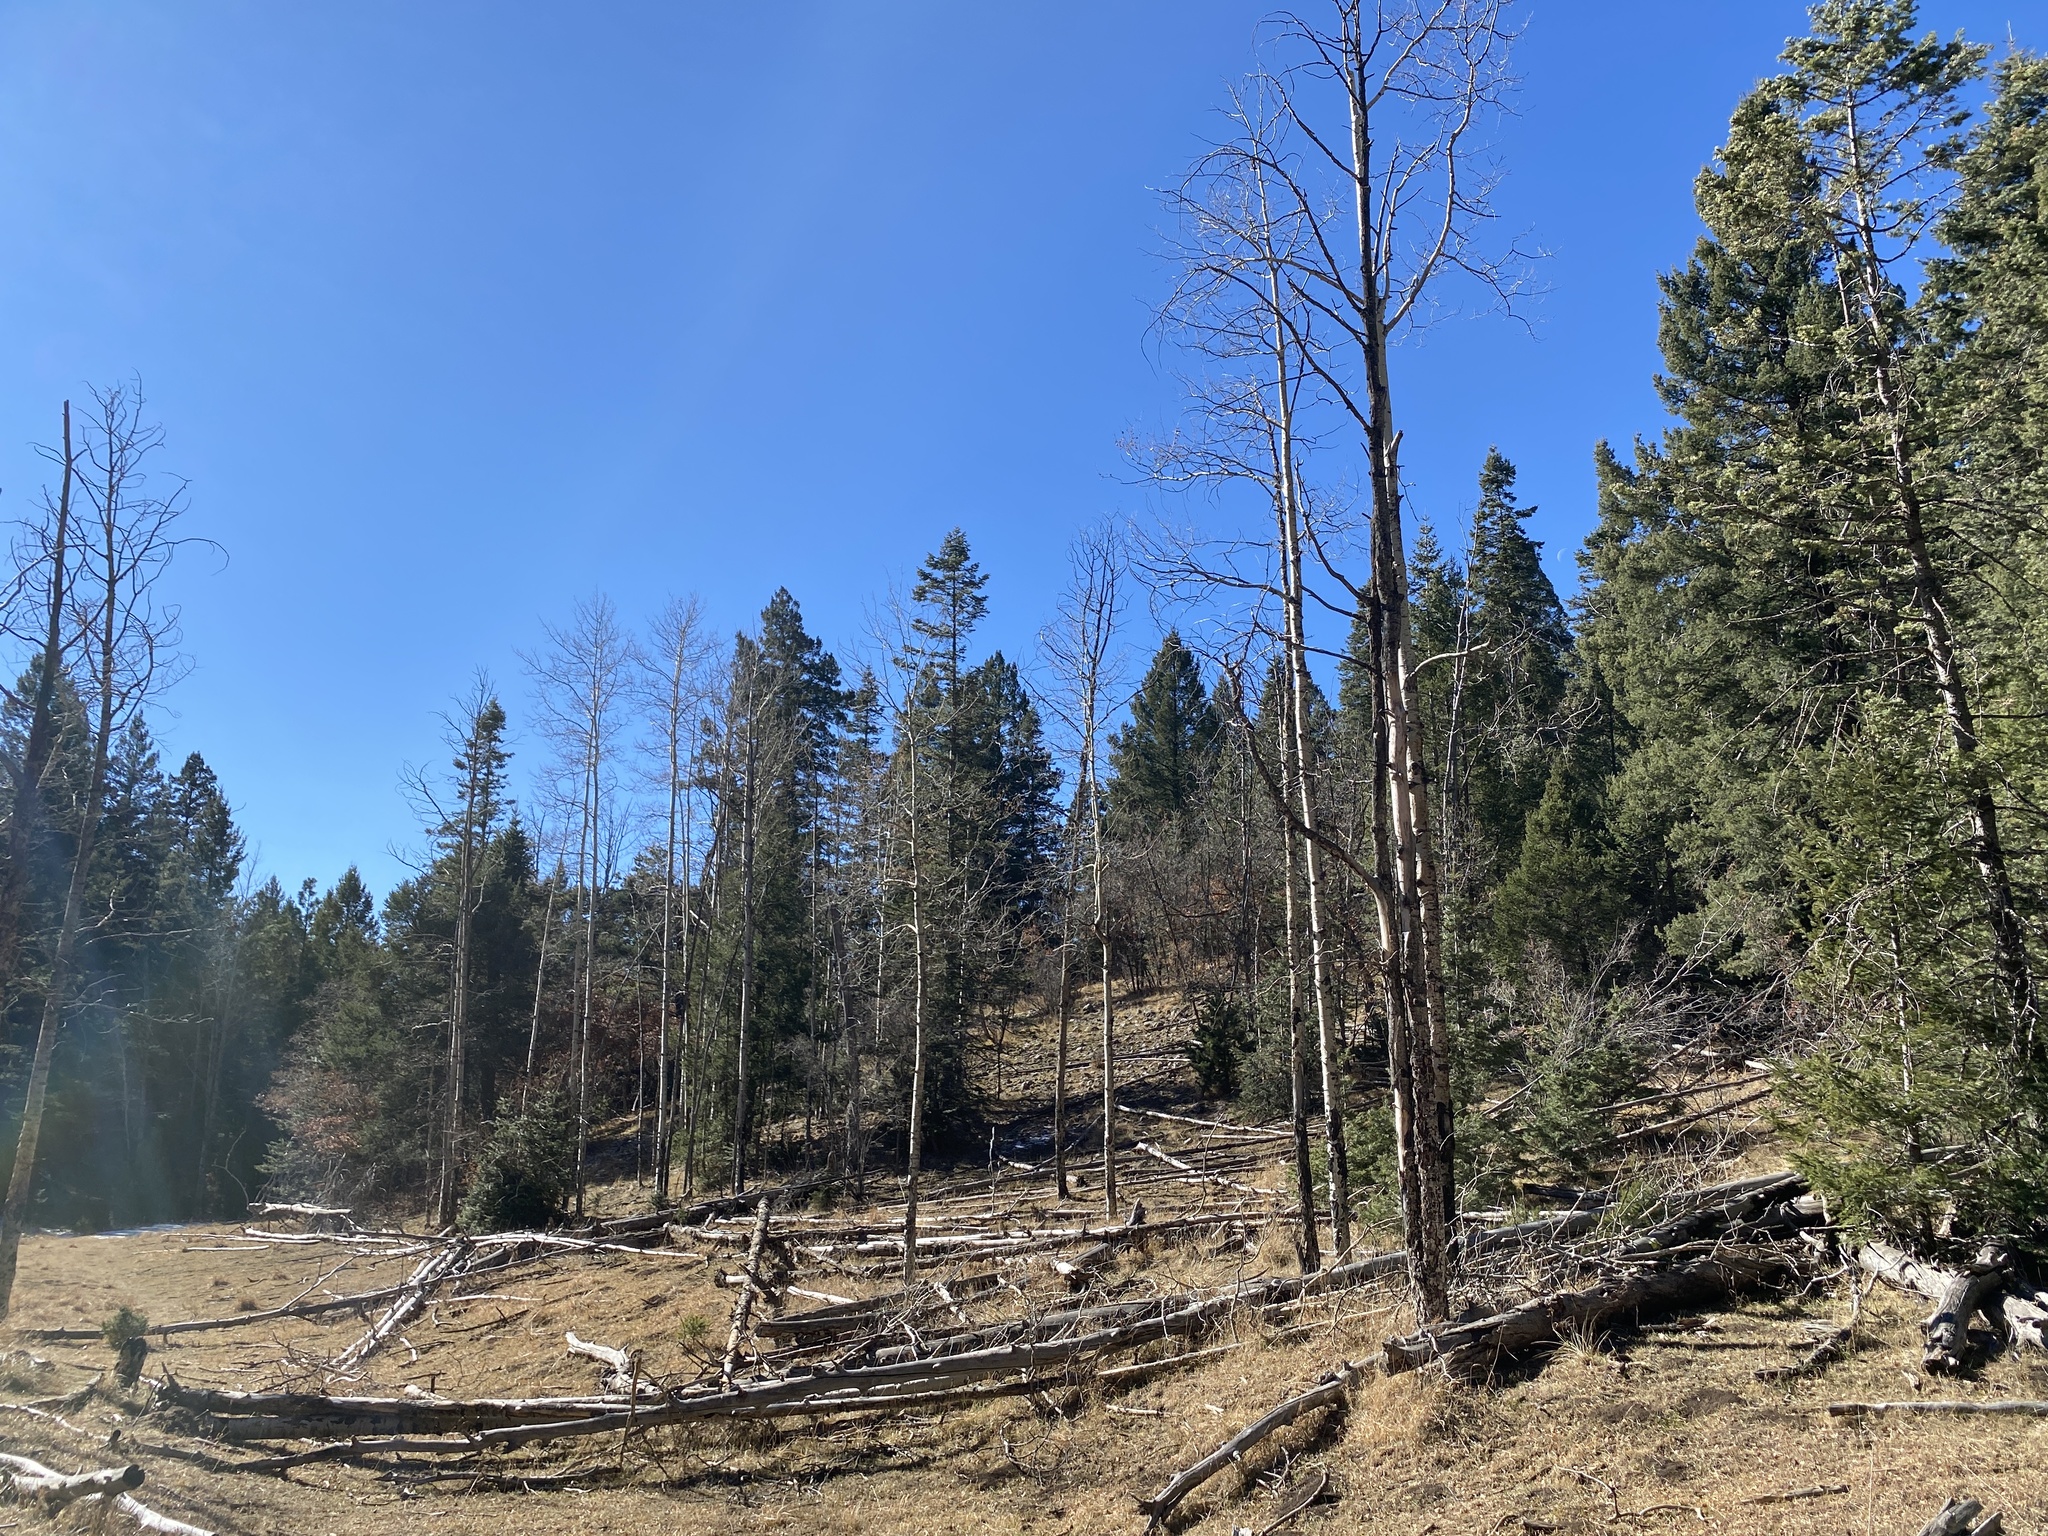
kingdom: Plantae
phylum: Tracheophyta
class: Magnoliopsida
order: Malpighiales
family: Salicaceae
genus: Populus
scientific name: Populus tremuloides
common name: Quaking aspen
